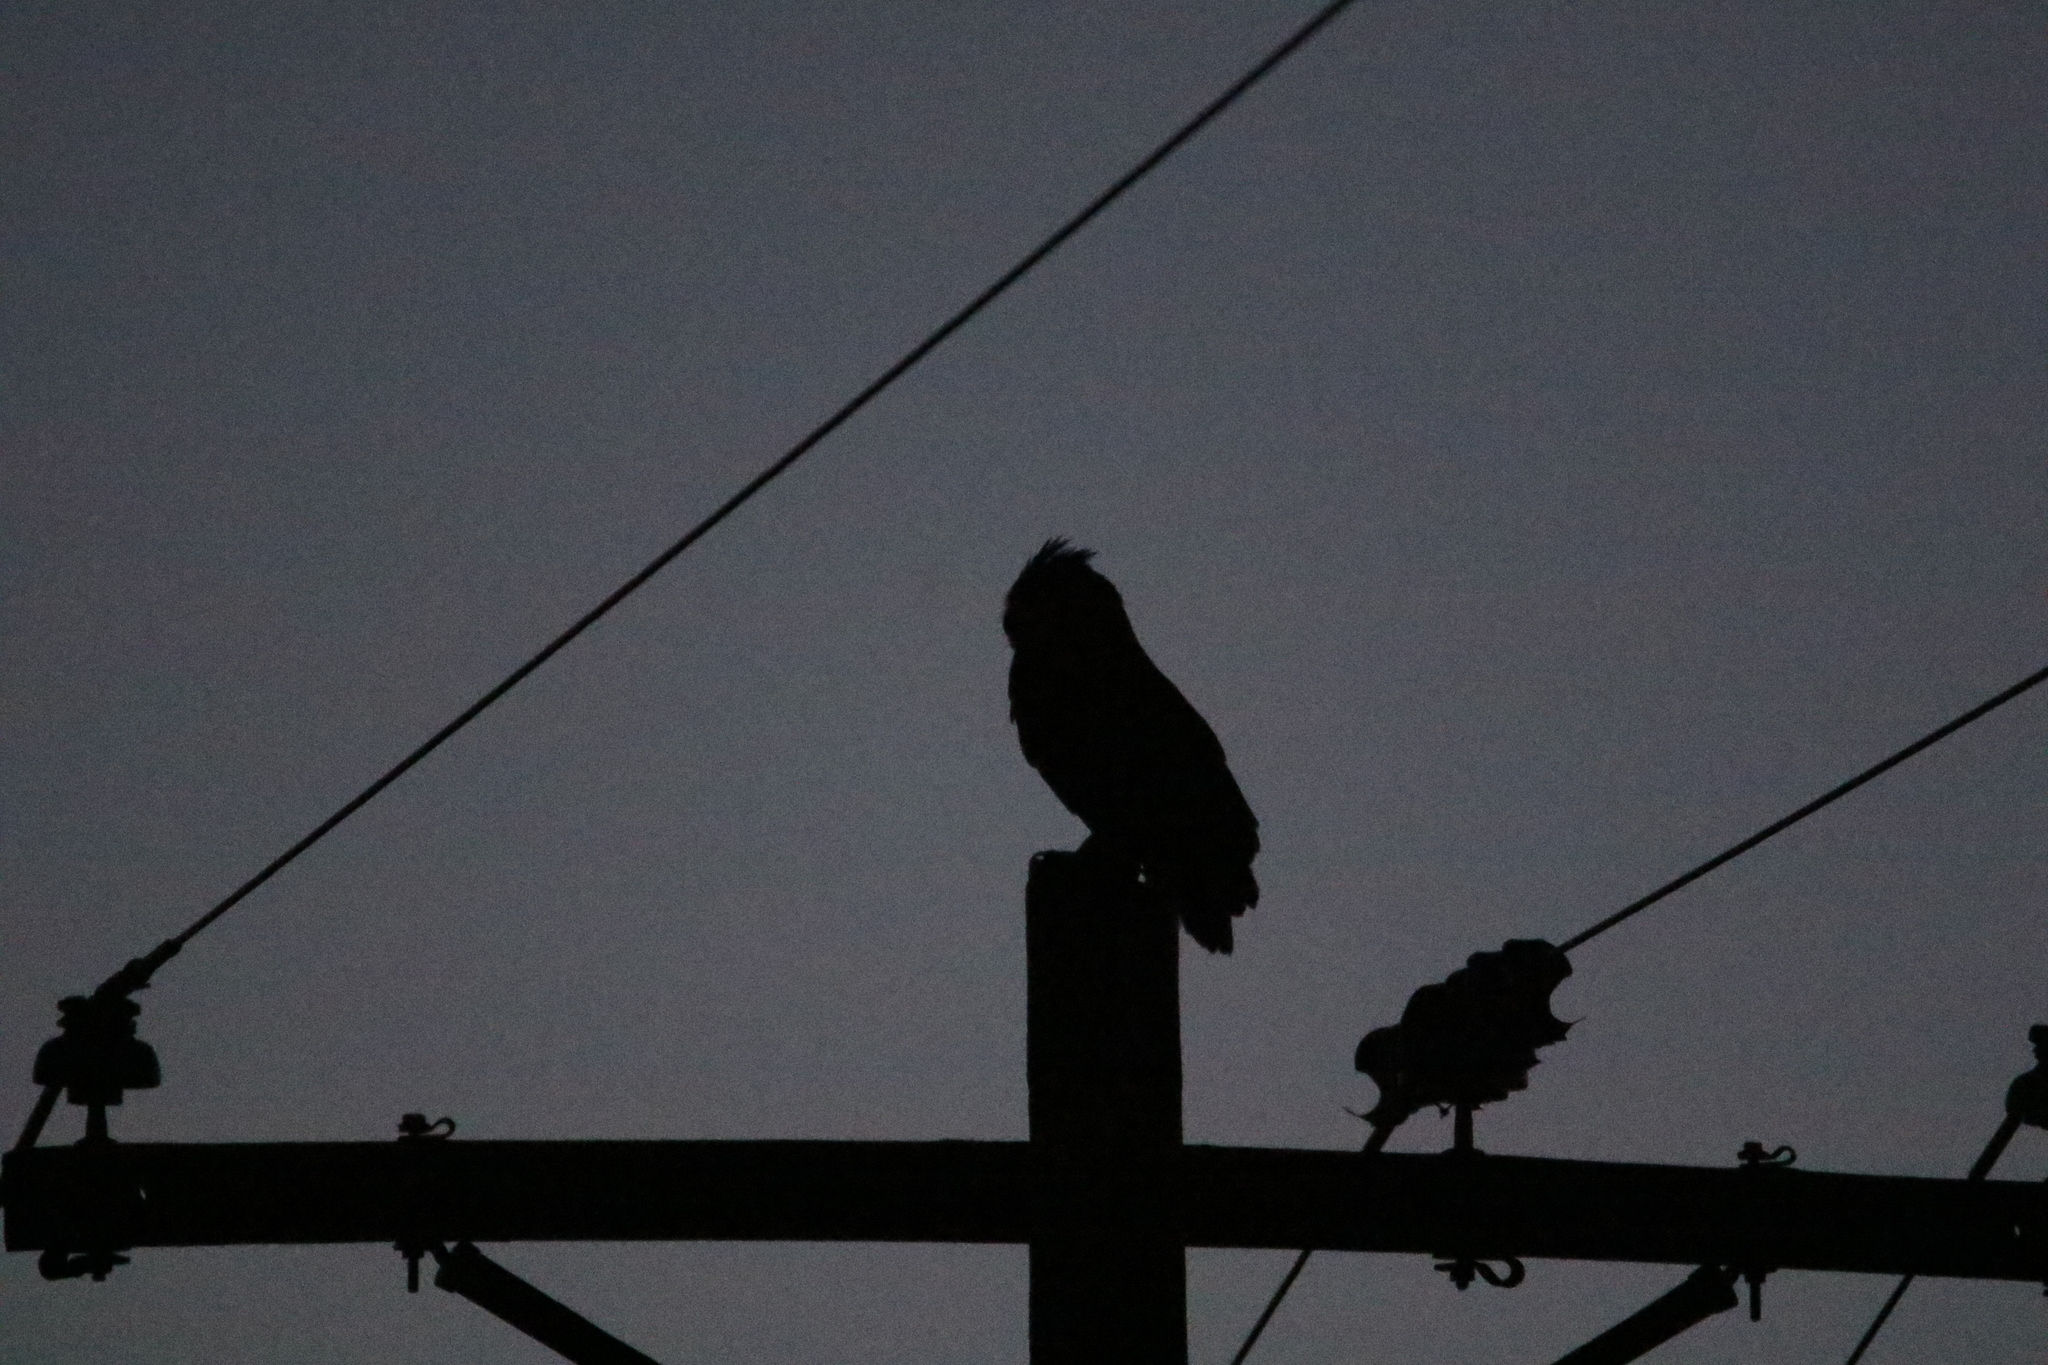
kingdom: Animalia
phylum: Chordata
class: Aves
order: Strigiformes
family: Strigidae
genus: Bubo
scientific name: Bubo virginianus
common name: Great horned owl
